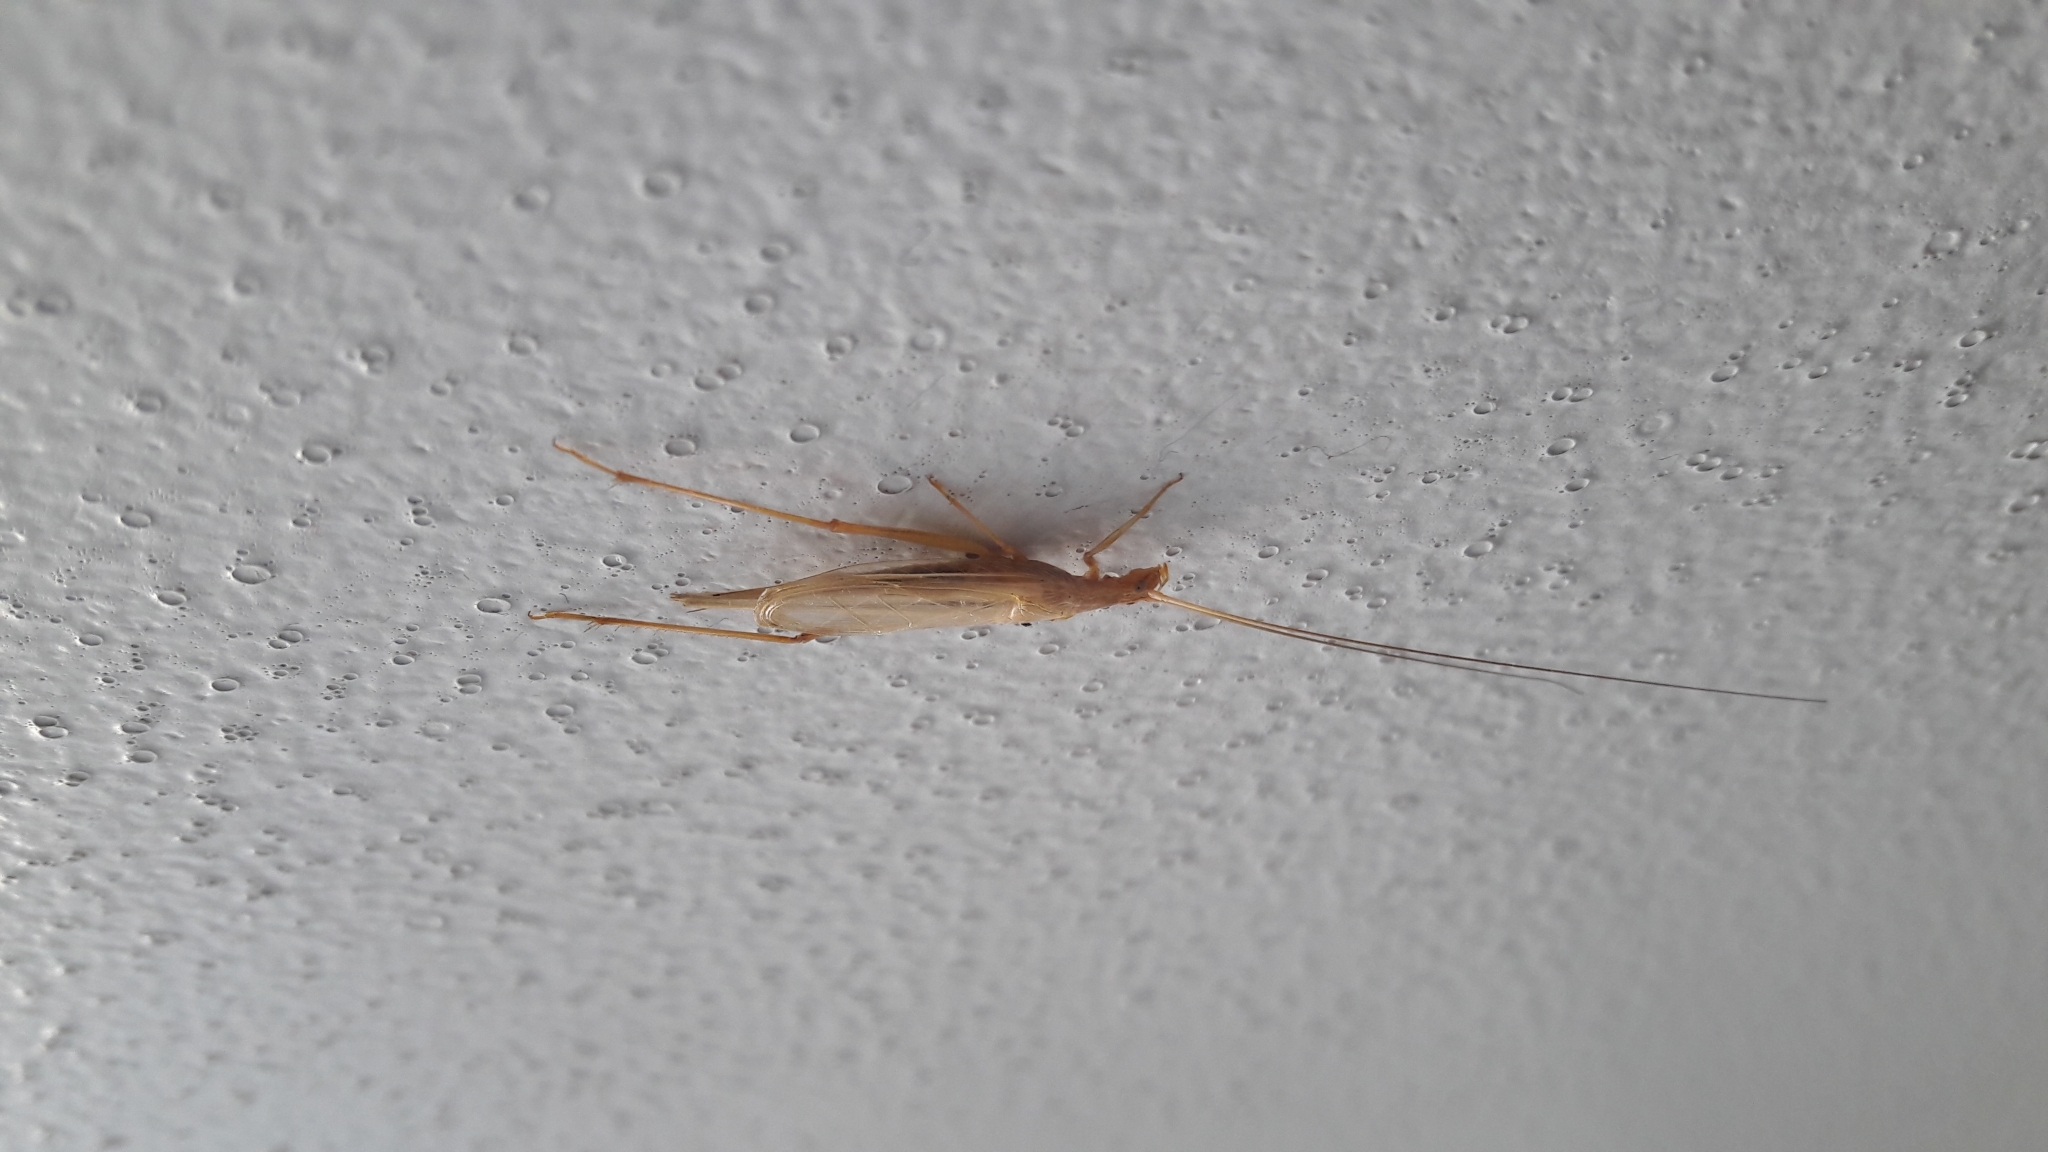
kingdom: Animalia
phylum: Arthropoda
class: Insecta
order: Orthoptera
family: Gryllidae
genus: Oecanthus
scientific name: Oecanthus dulcisonans
